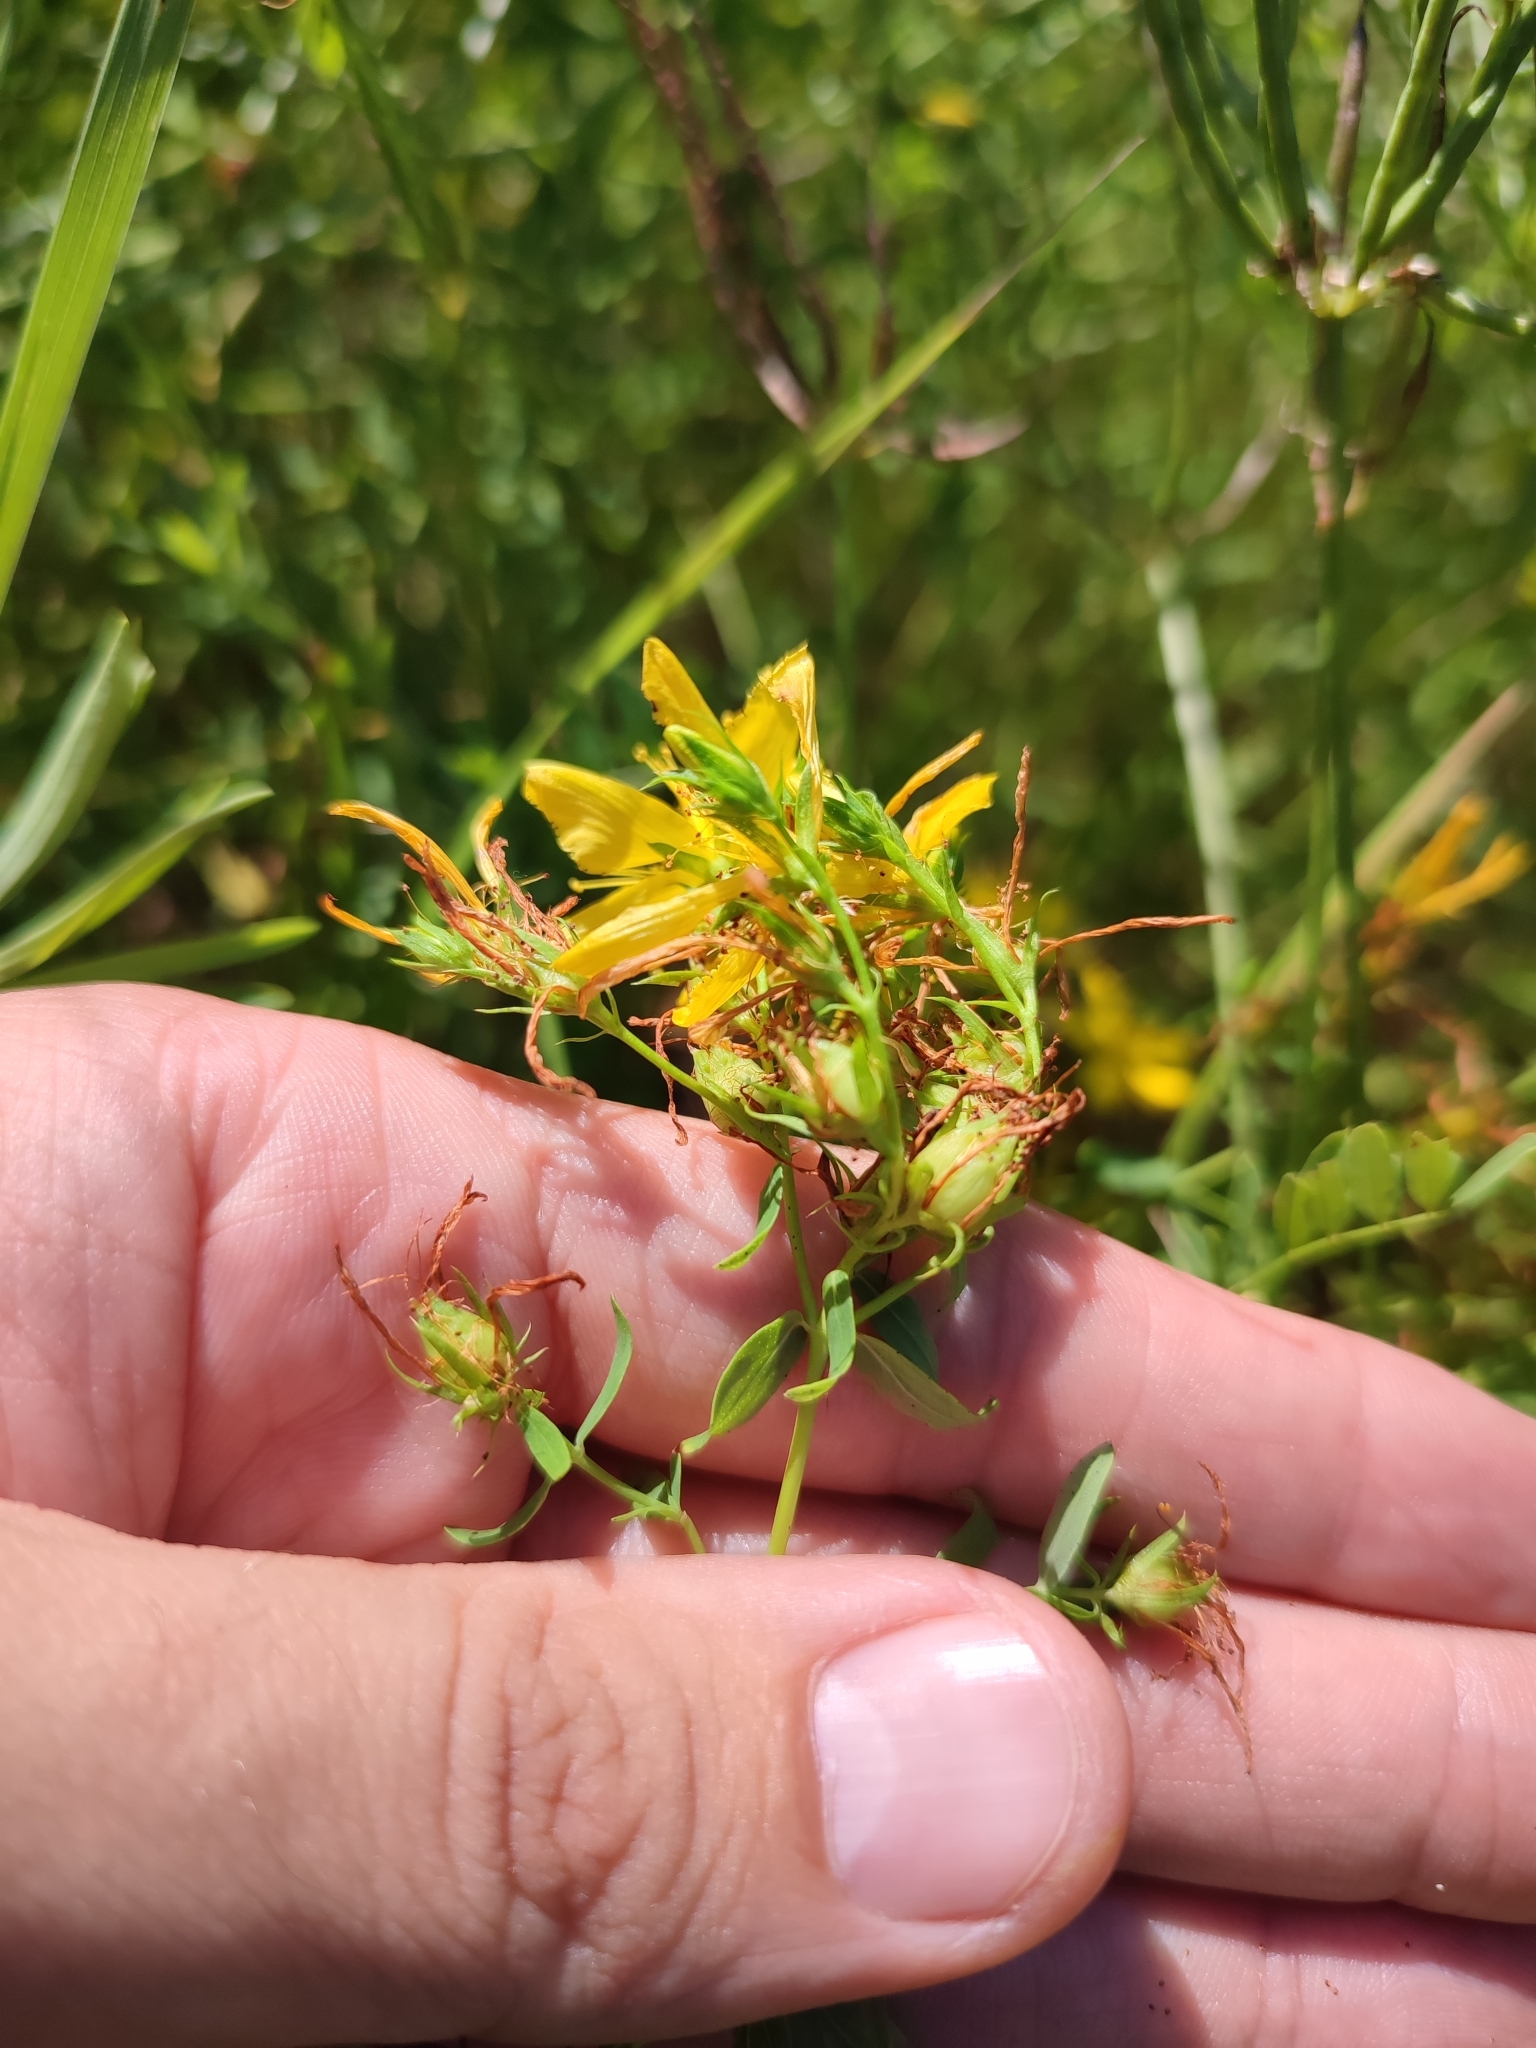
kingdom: Plantae
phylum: Tracheophyta
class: Magnoliopsida
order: Malpighiales
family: Hypericaceae
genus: Hypericum
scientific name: Hypericum perforatum
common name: Common st. johnswort
